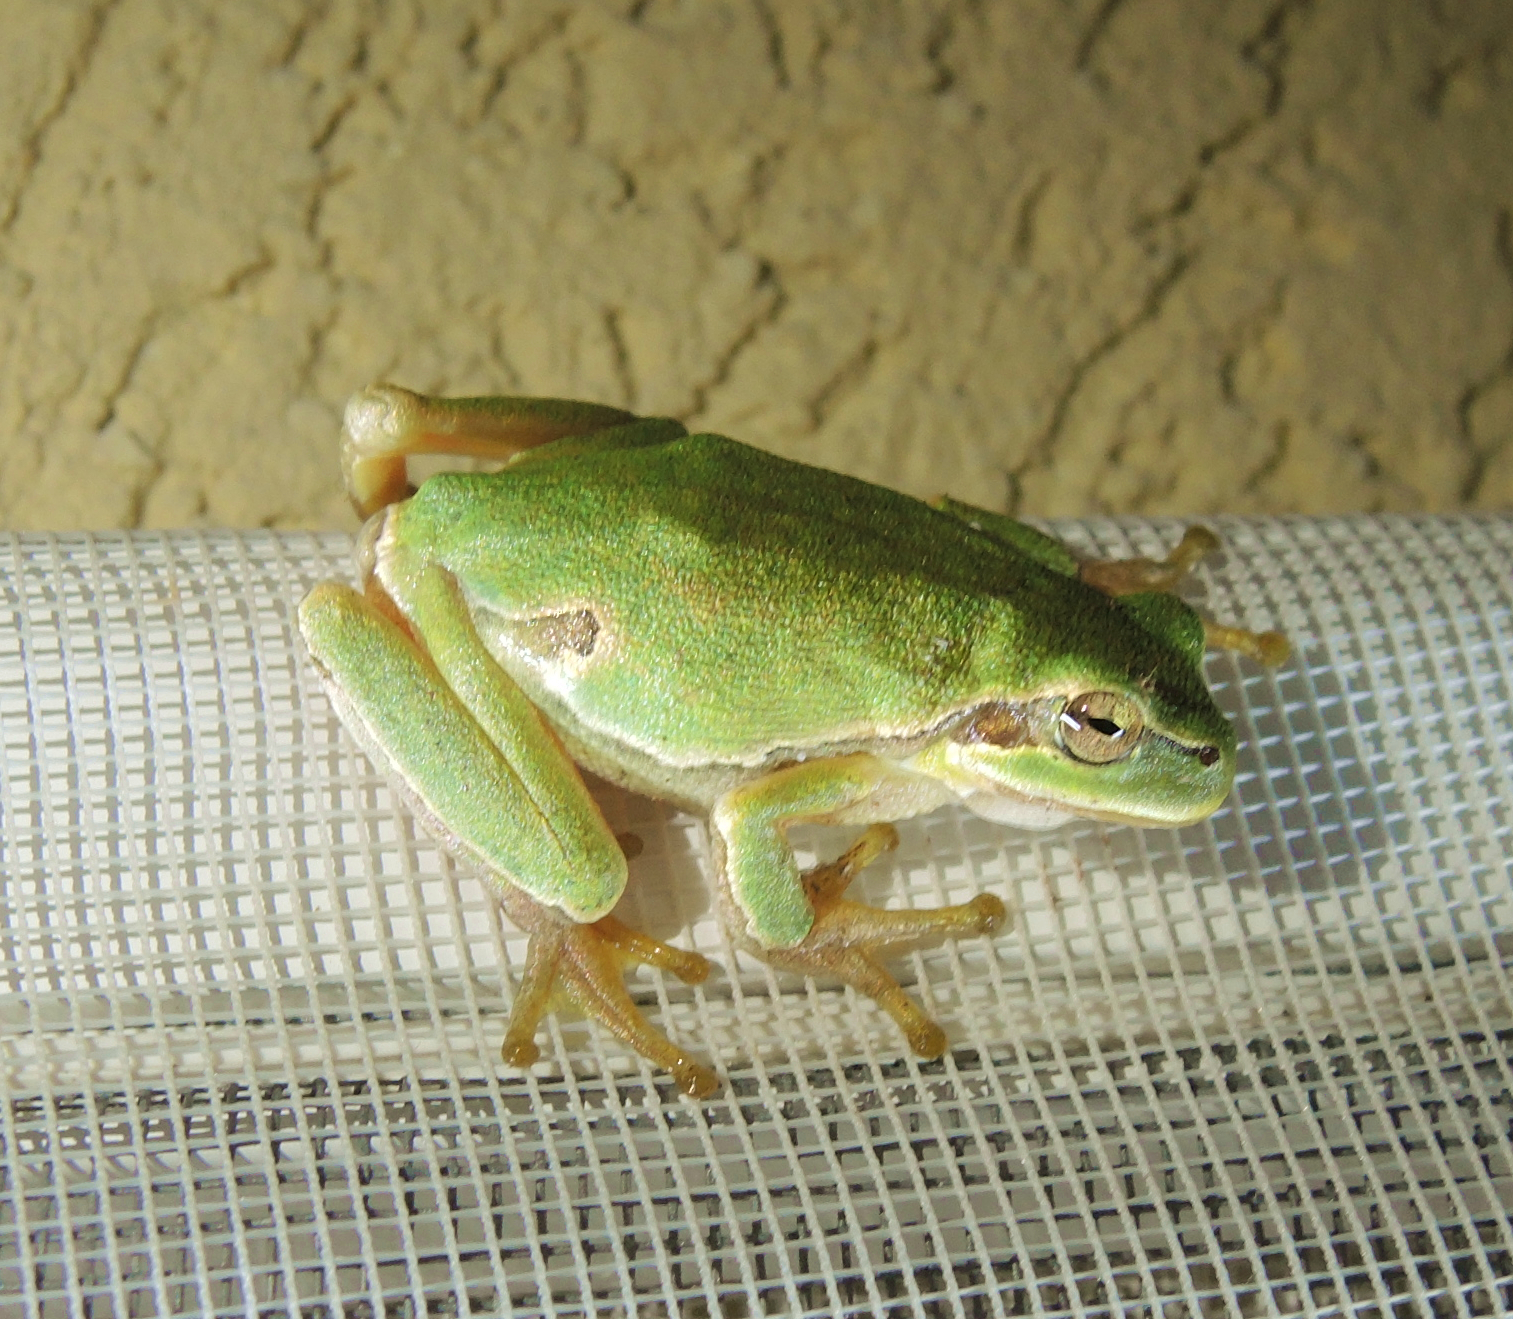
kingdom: Animalia
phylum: Chordata
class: Amphibia
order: Anura
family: Hylidae
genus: Hyla
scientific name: Hyla orientalis
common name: Caucasian treefrog
